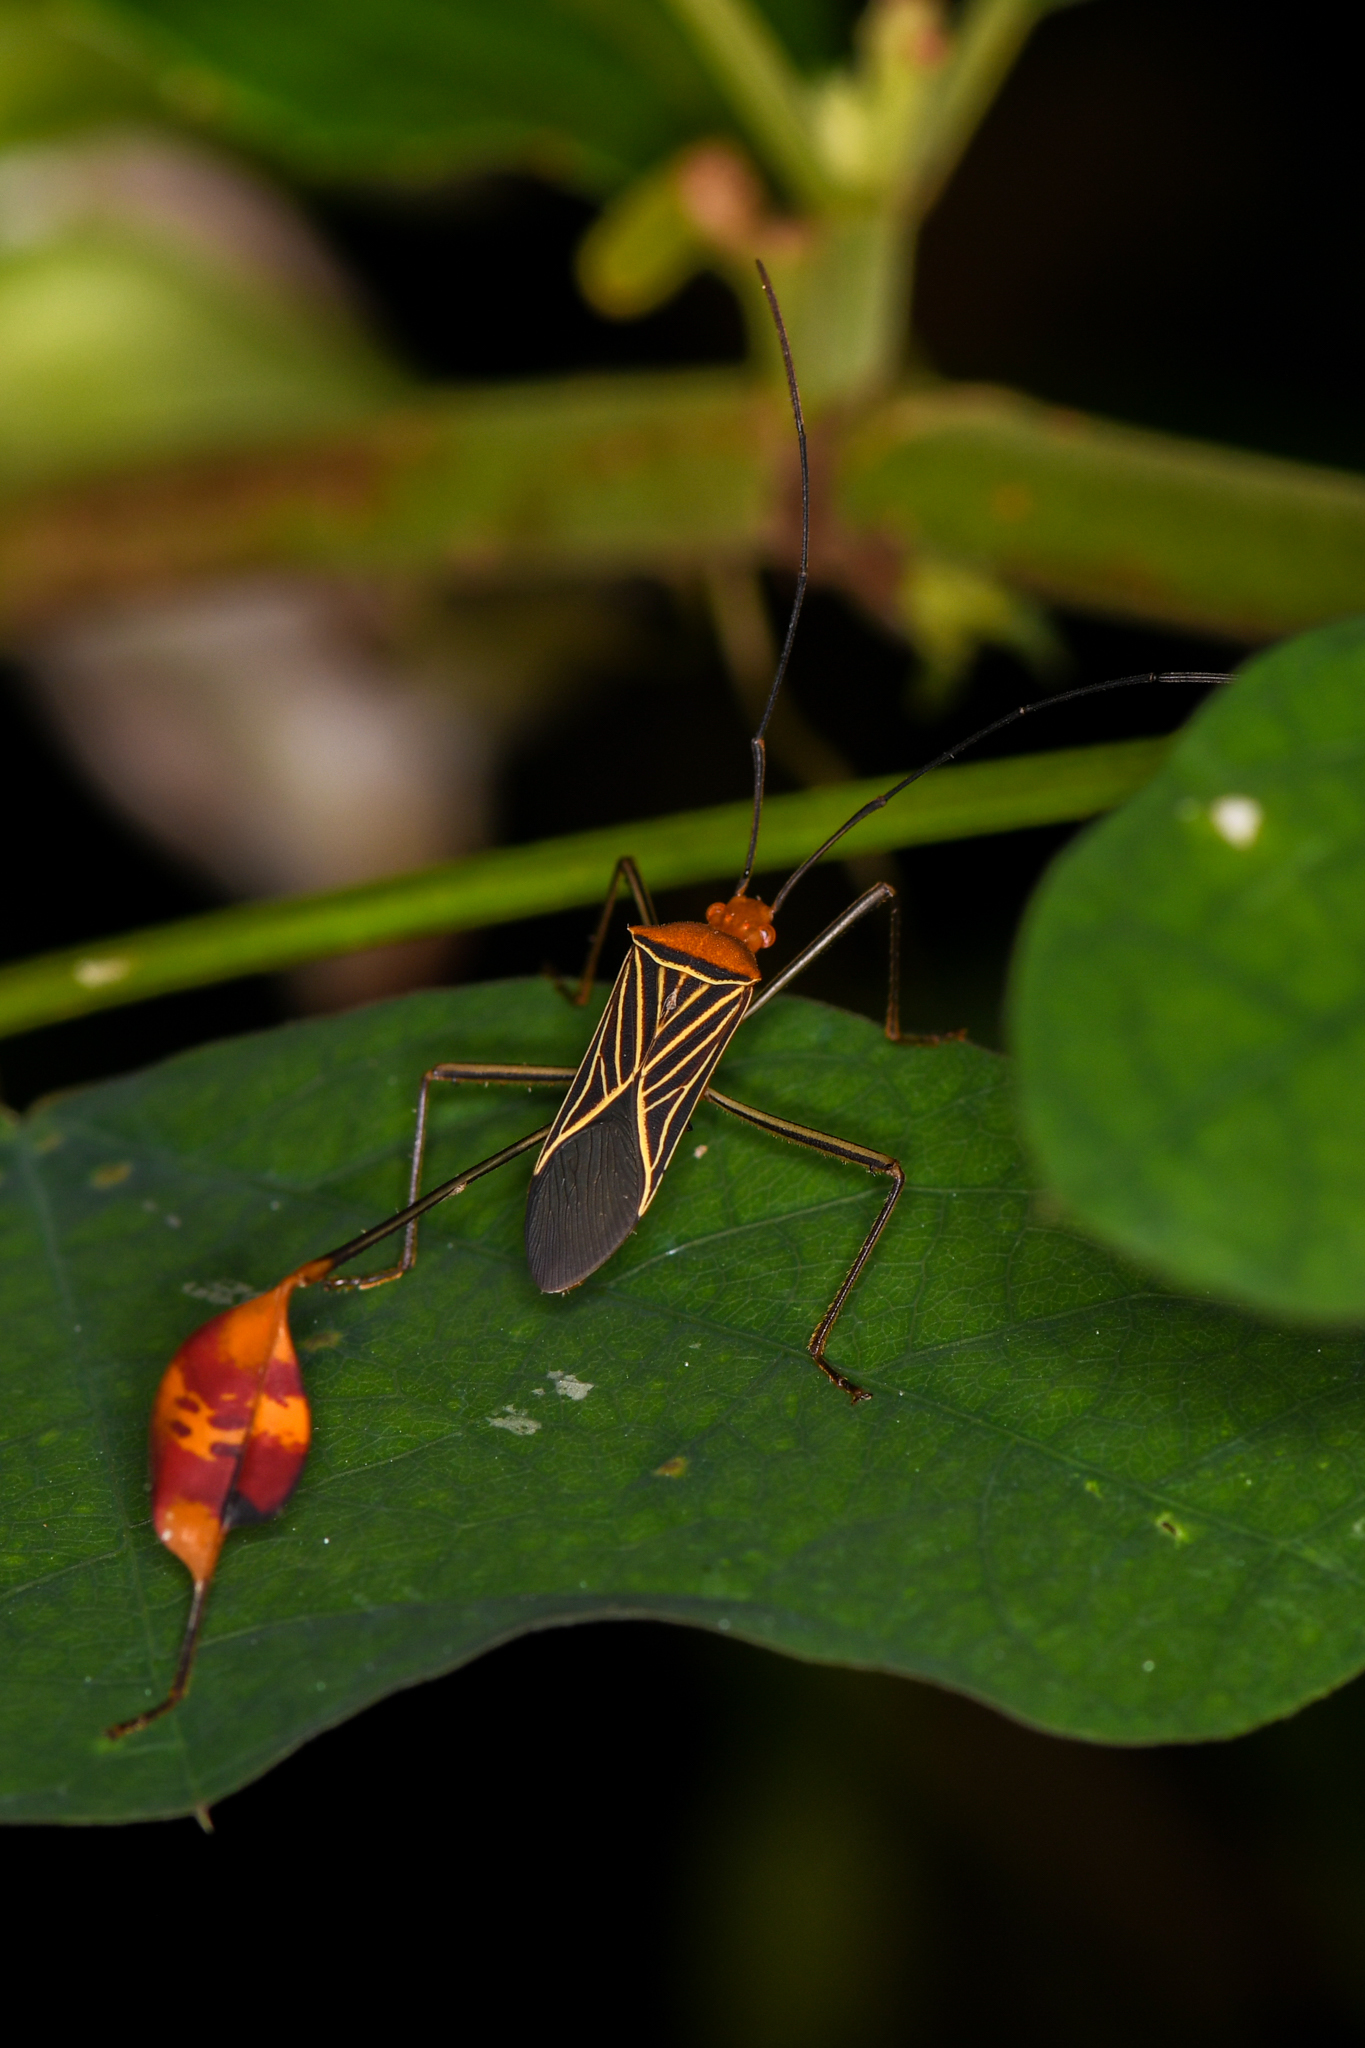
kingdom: Animalia
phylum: Arthropoda
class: Insecta
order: Hemiptera
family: Coreidae
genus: Bitta
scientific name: Bitta
